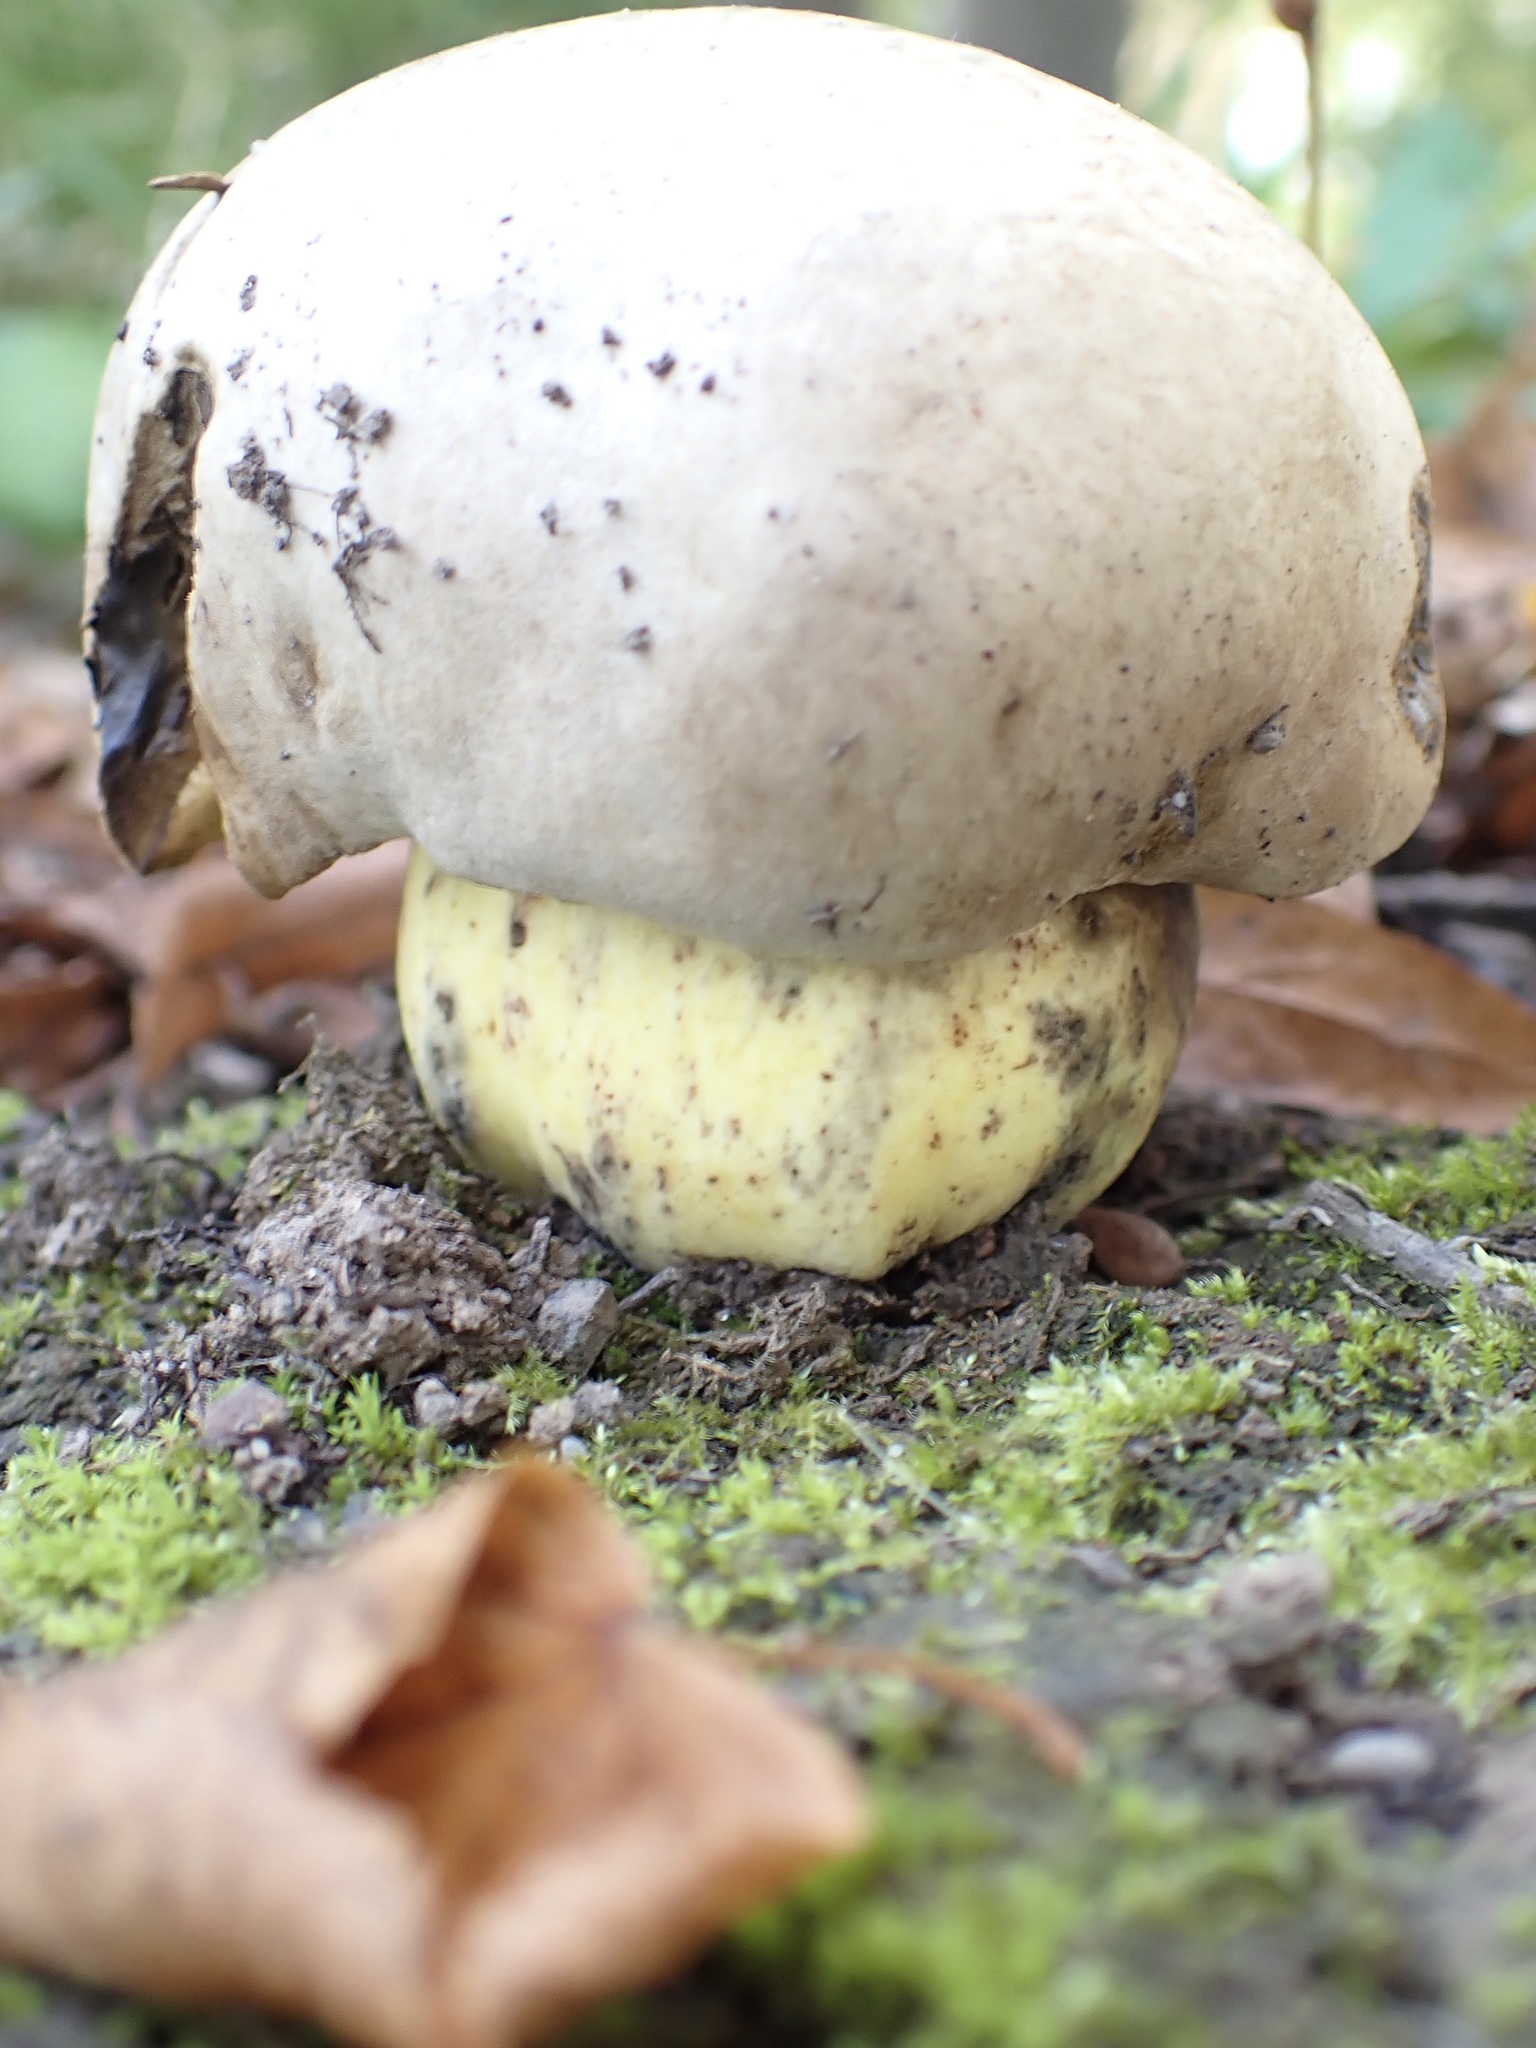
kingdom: Fungi
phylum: Basidiomycota
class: Agaricomycetes
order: Boletales
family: Boletaceae
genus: Caloboletus
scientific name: Caloboletus radicans
